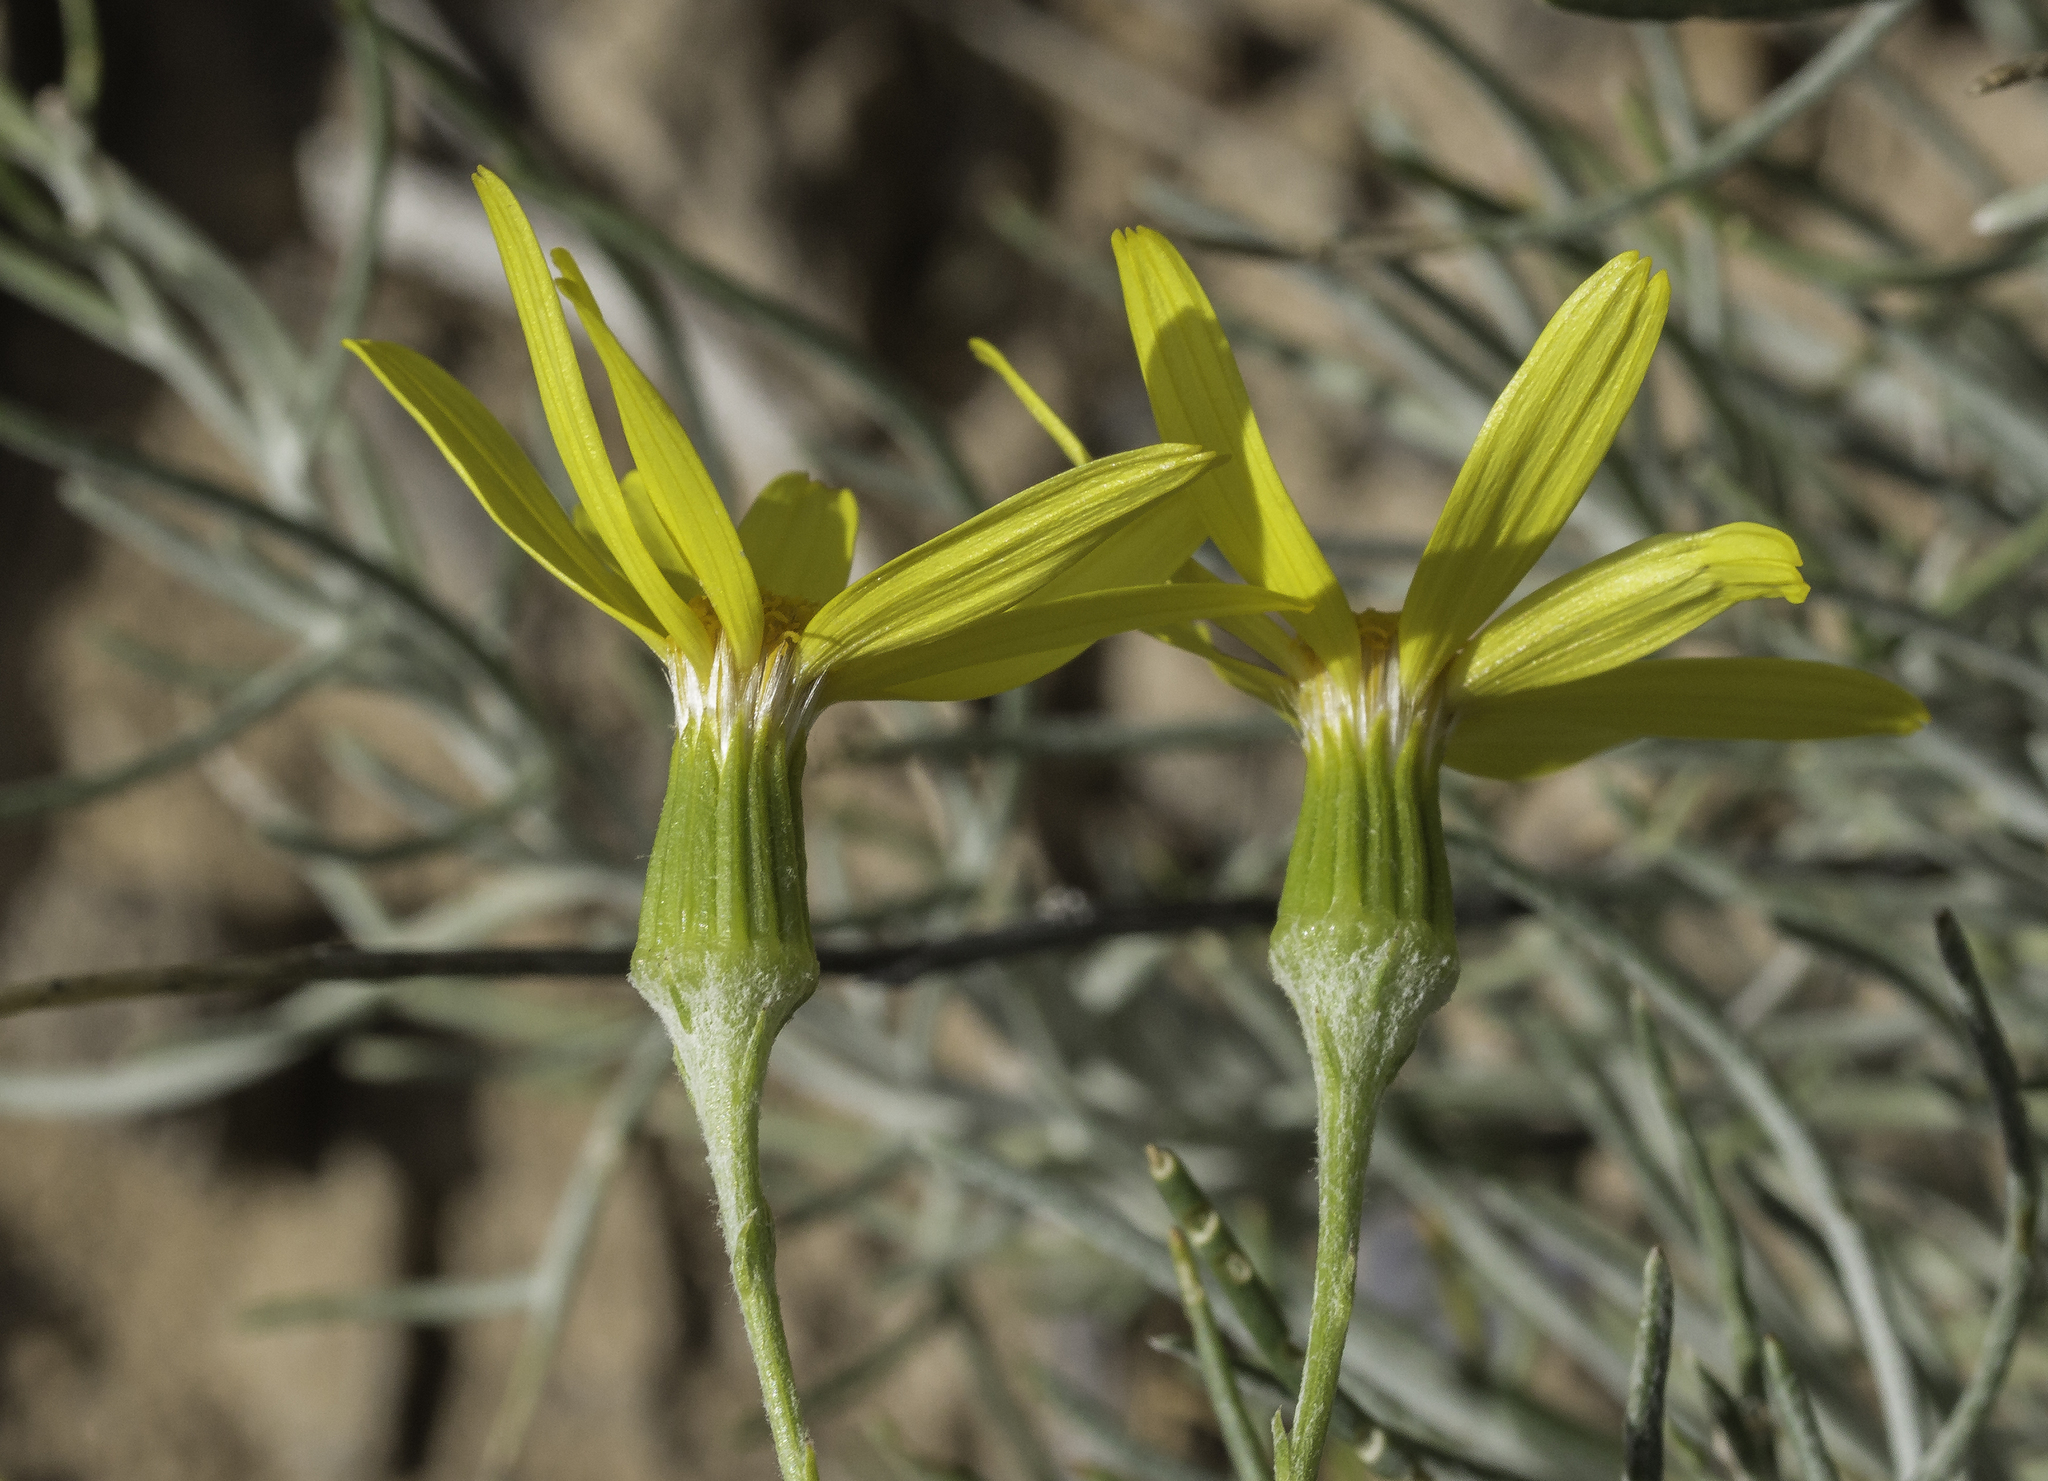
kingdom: Plantae
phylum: Tracheophyta
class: Magnoliopsida
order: Asterales
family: Asteraceae
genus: Senecio
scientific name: Senecio flaccidus
